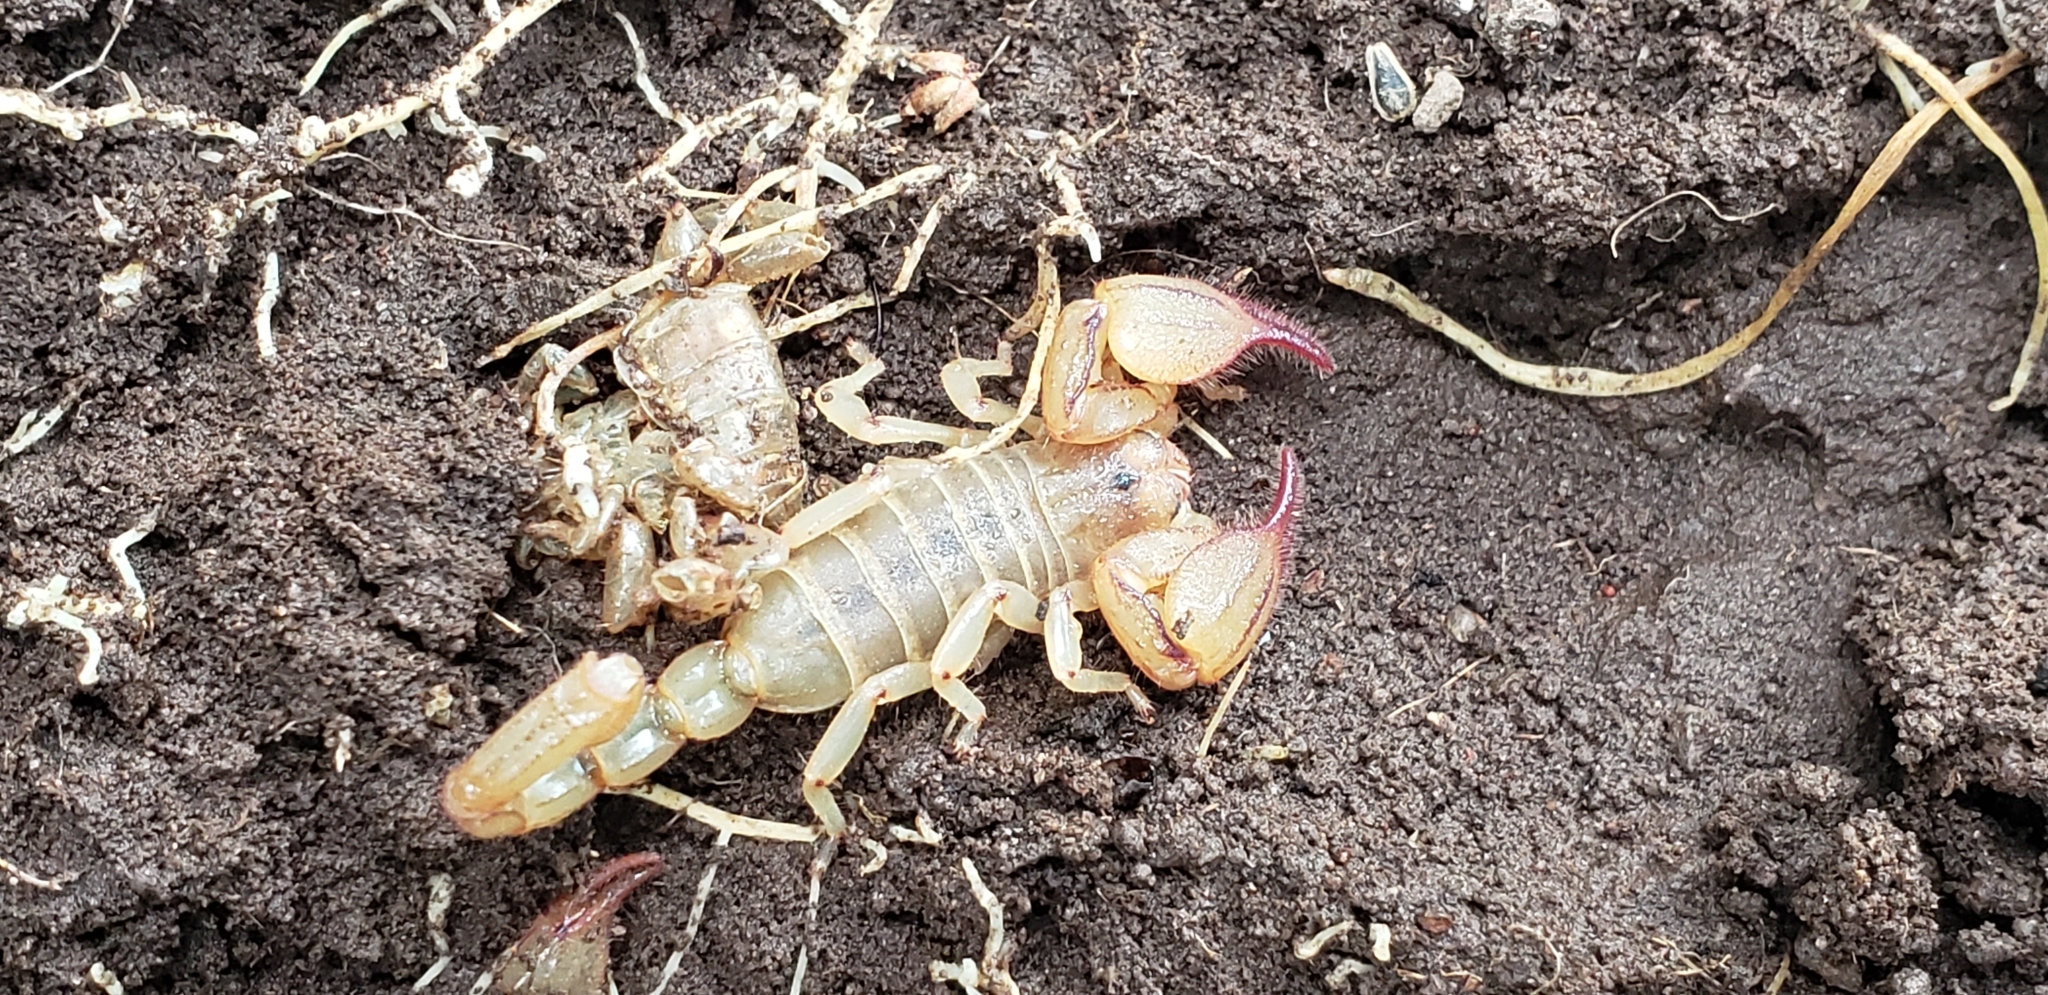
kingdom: Animalia
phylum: Arthropoda
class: Arachnida
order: Scorpiones
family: Diplocentridae
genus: Diplocentrus
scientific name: Diplocentrus zacatecanus
